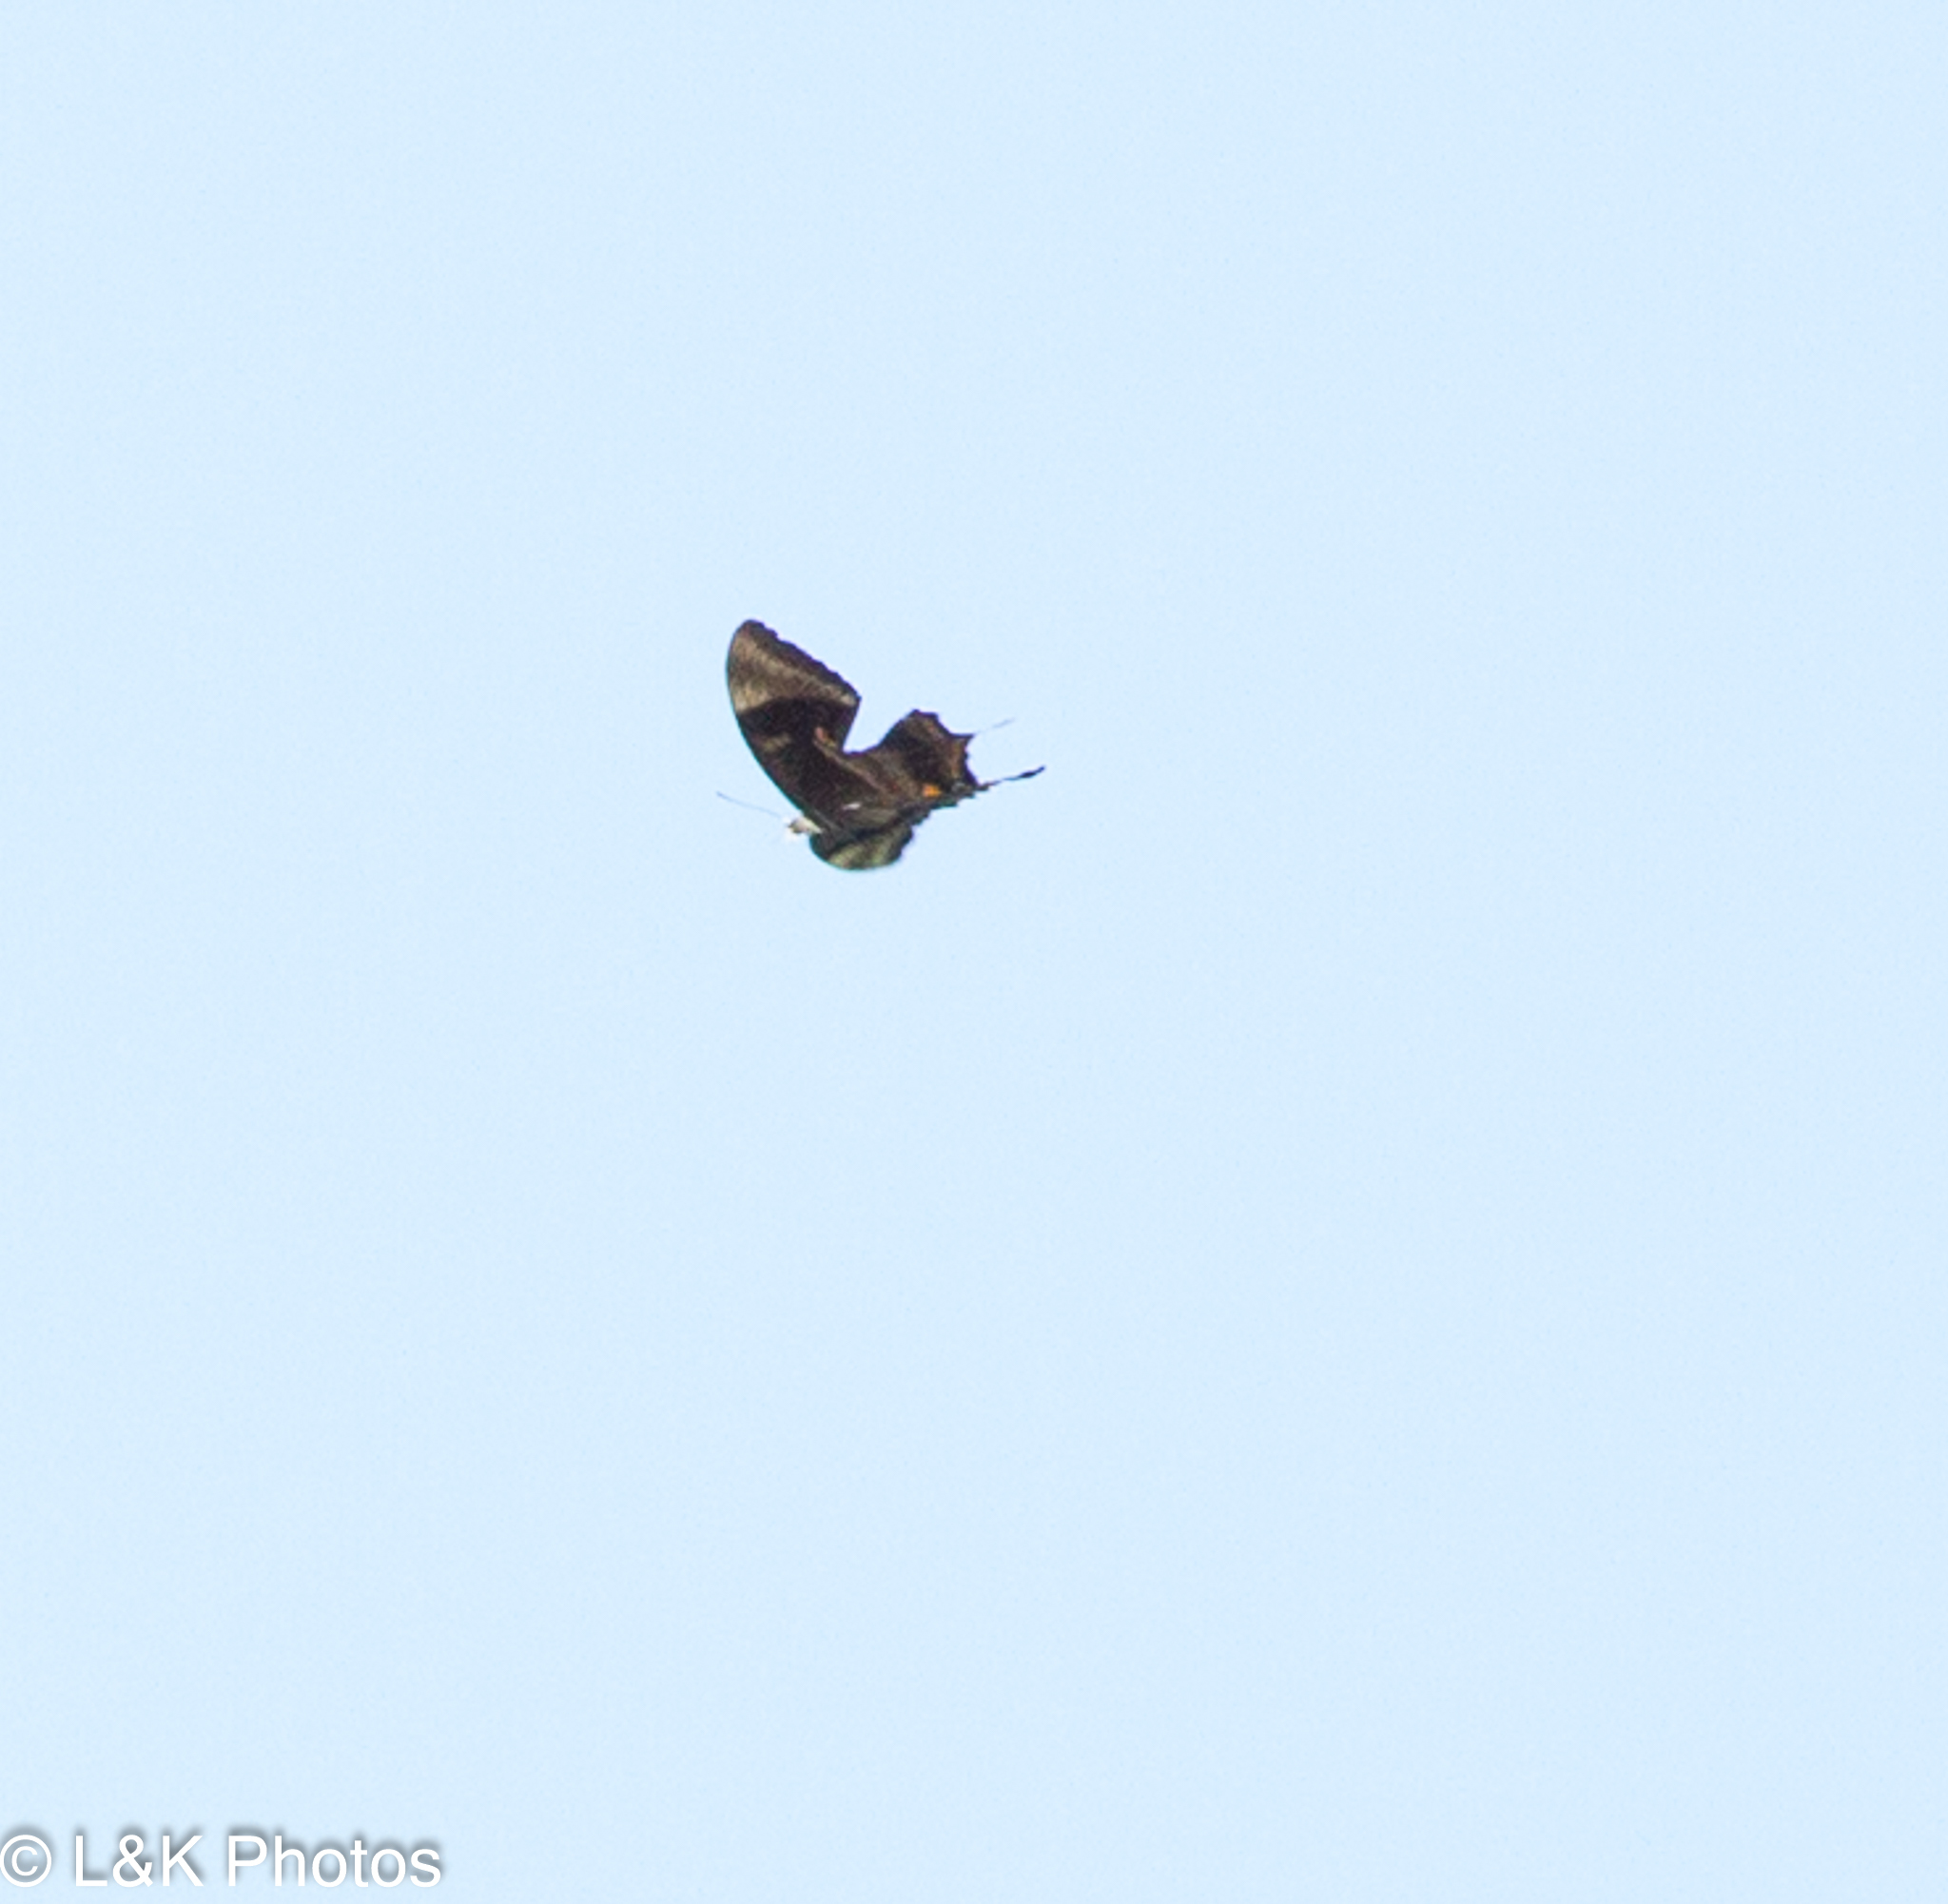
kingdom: Animalia
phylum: Arthropoda
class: Insecta
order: Lepidoptera
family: Papilionidae
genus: Papilio
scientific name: Papilio ulysses
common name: Blue emperor
